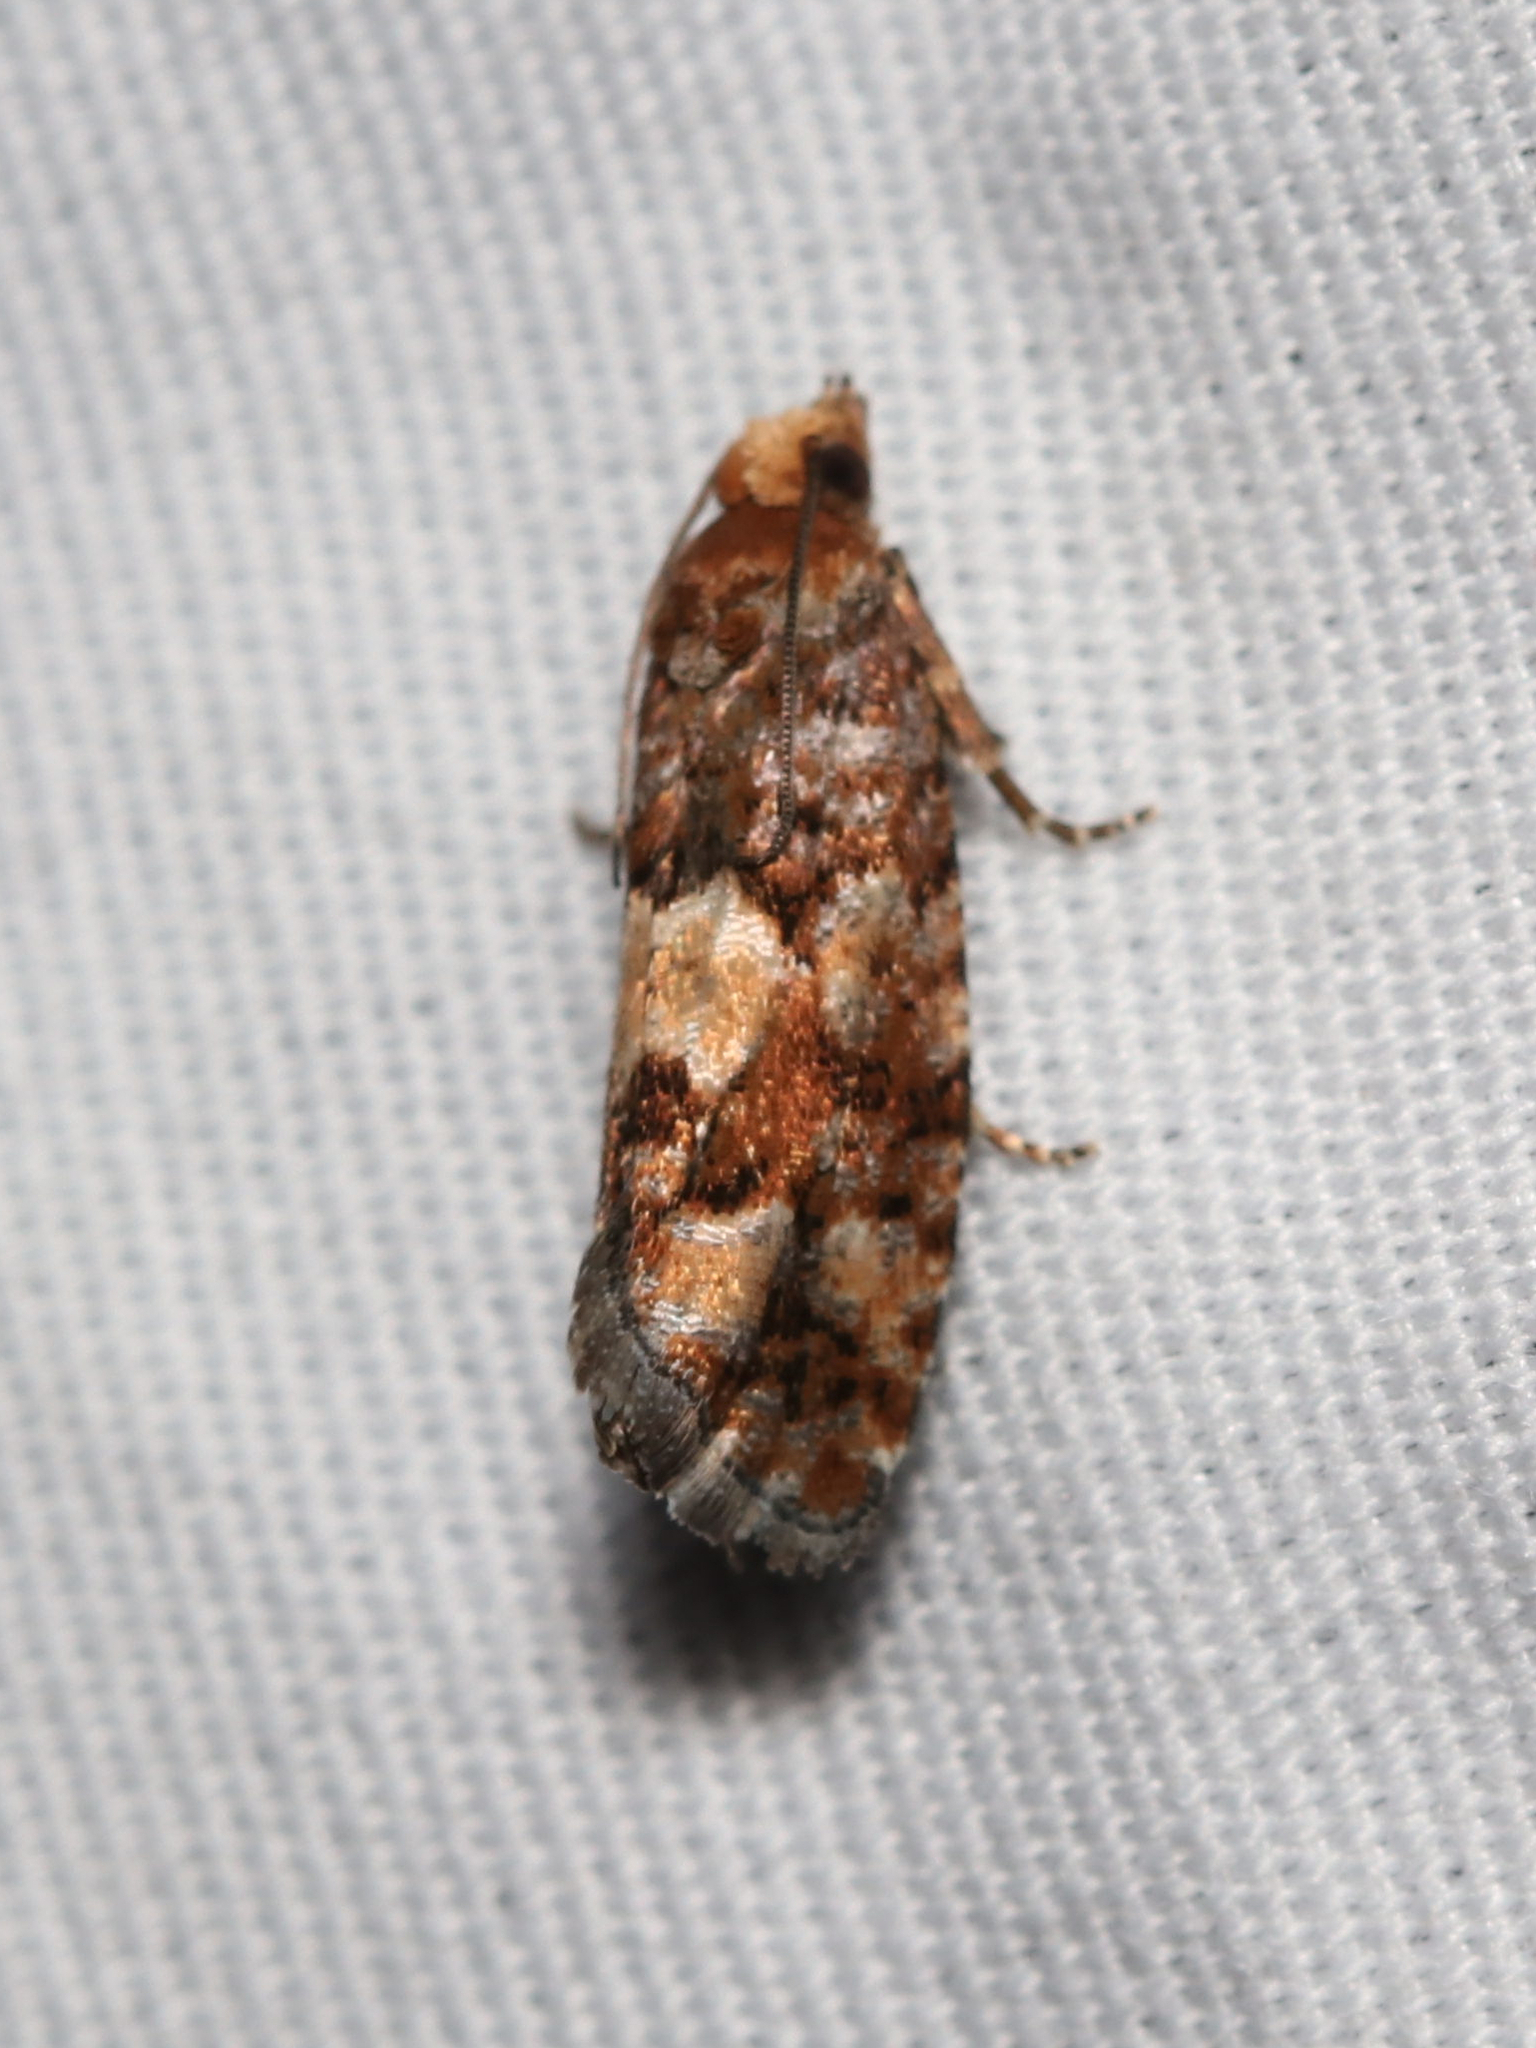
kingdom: Animalia
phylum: Arthropoda
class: Insecta
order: Lepidoptera
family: Tortricidae
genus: Eucopina
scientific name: Eucopina tocullionana
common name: White pinecone borer moth
